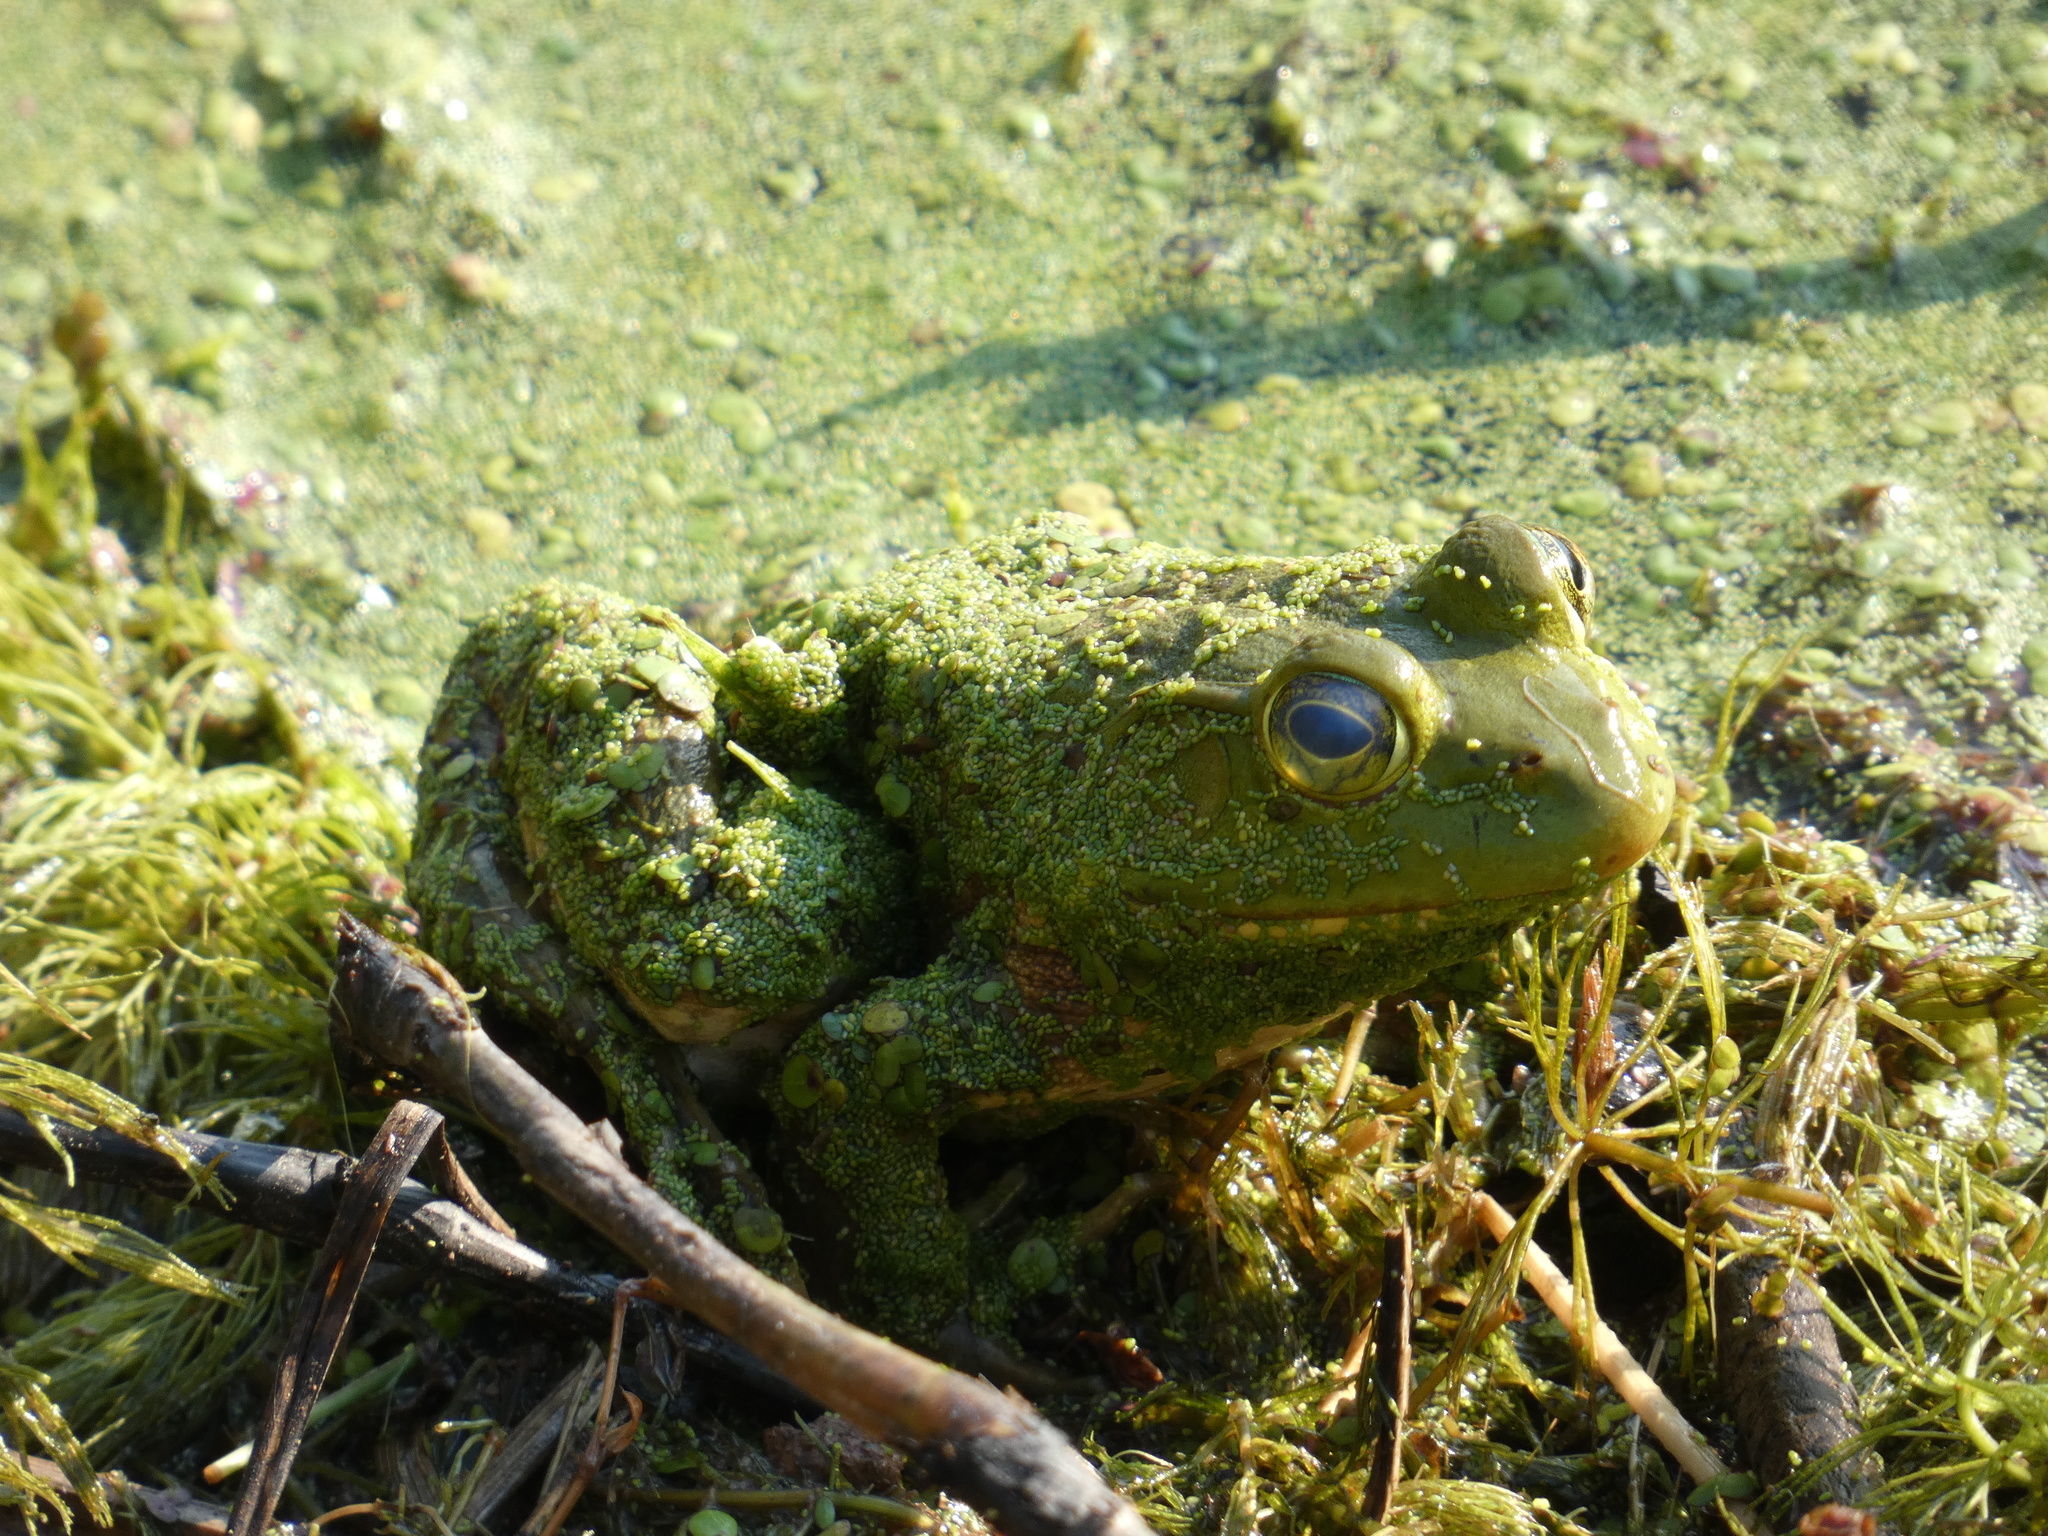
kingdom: Animalia
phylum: Chordata
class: Amphibia
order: Anura
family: Ranidae
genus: Lithobates
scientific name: Lithobates catesbeianus
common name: American bullfrog
